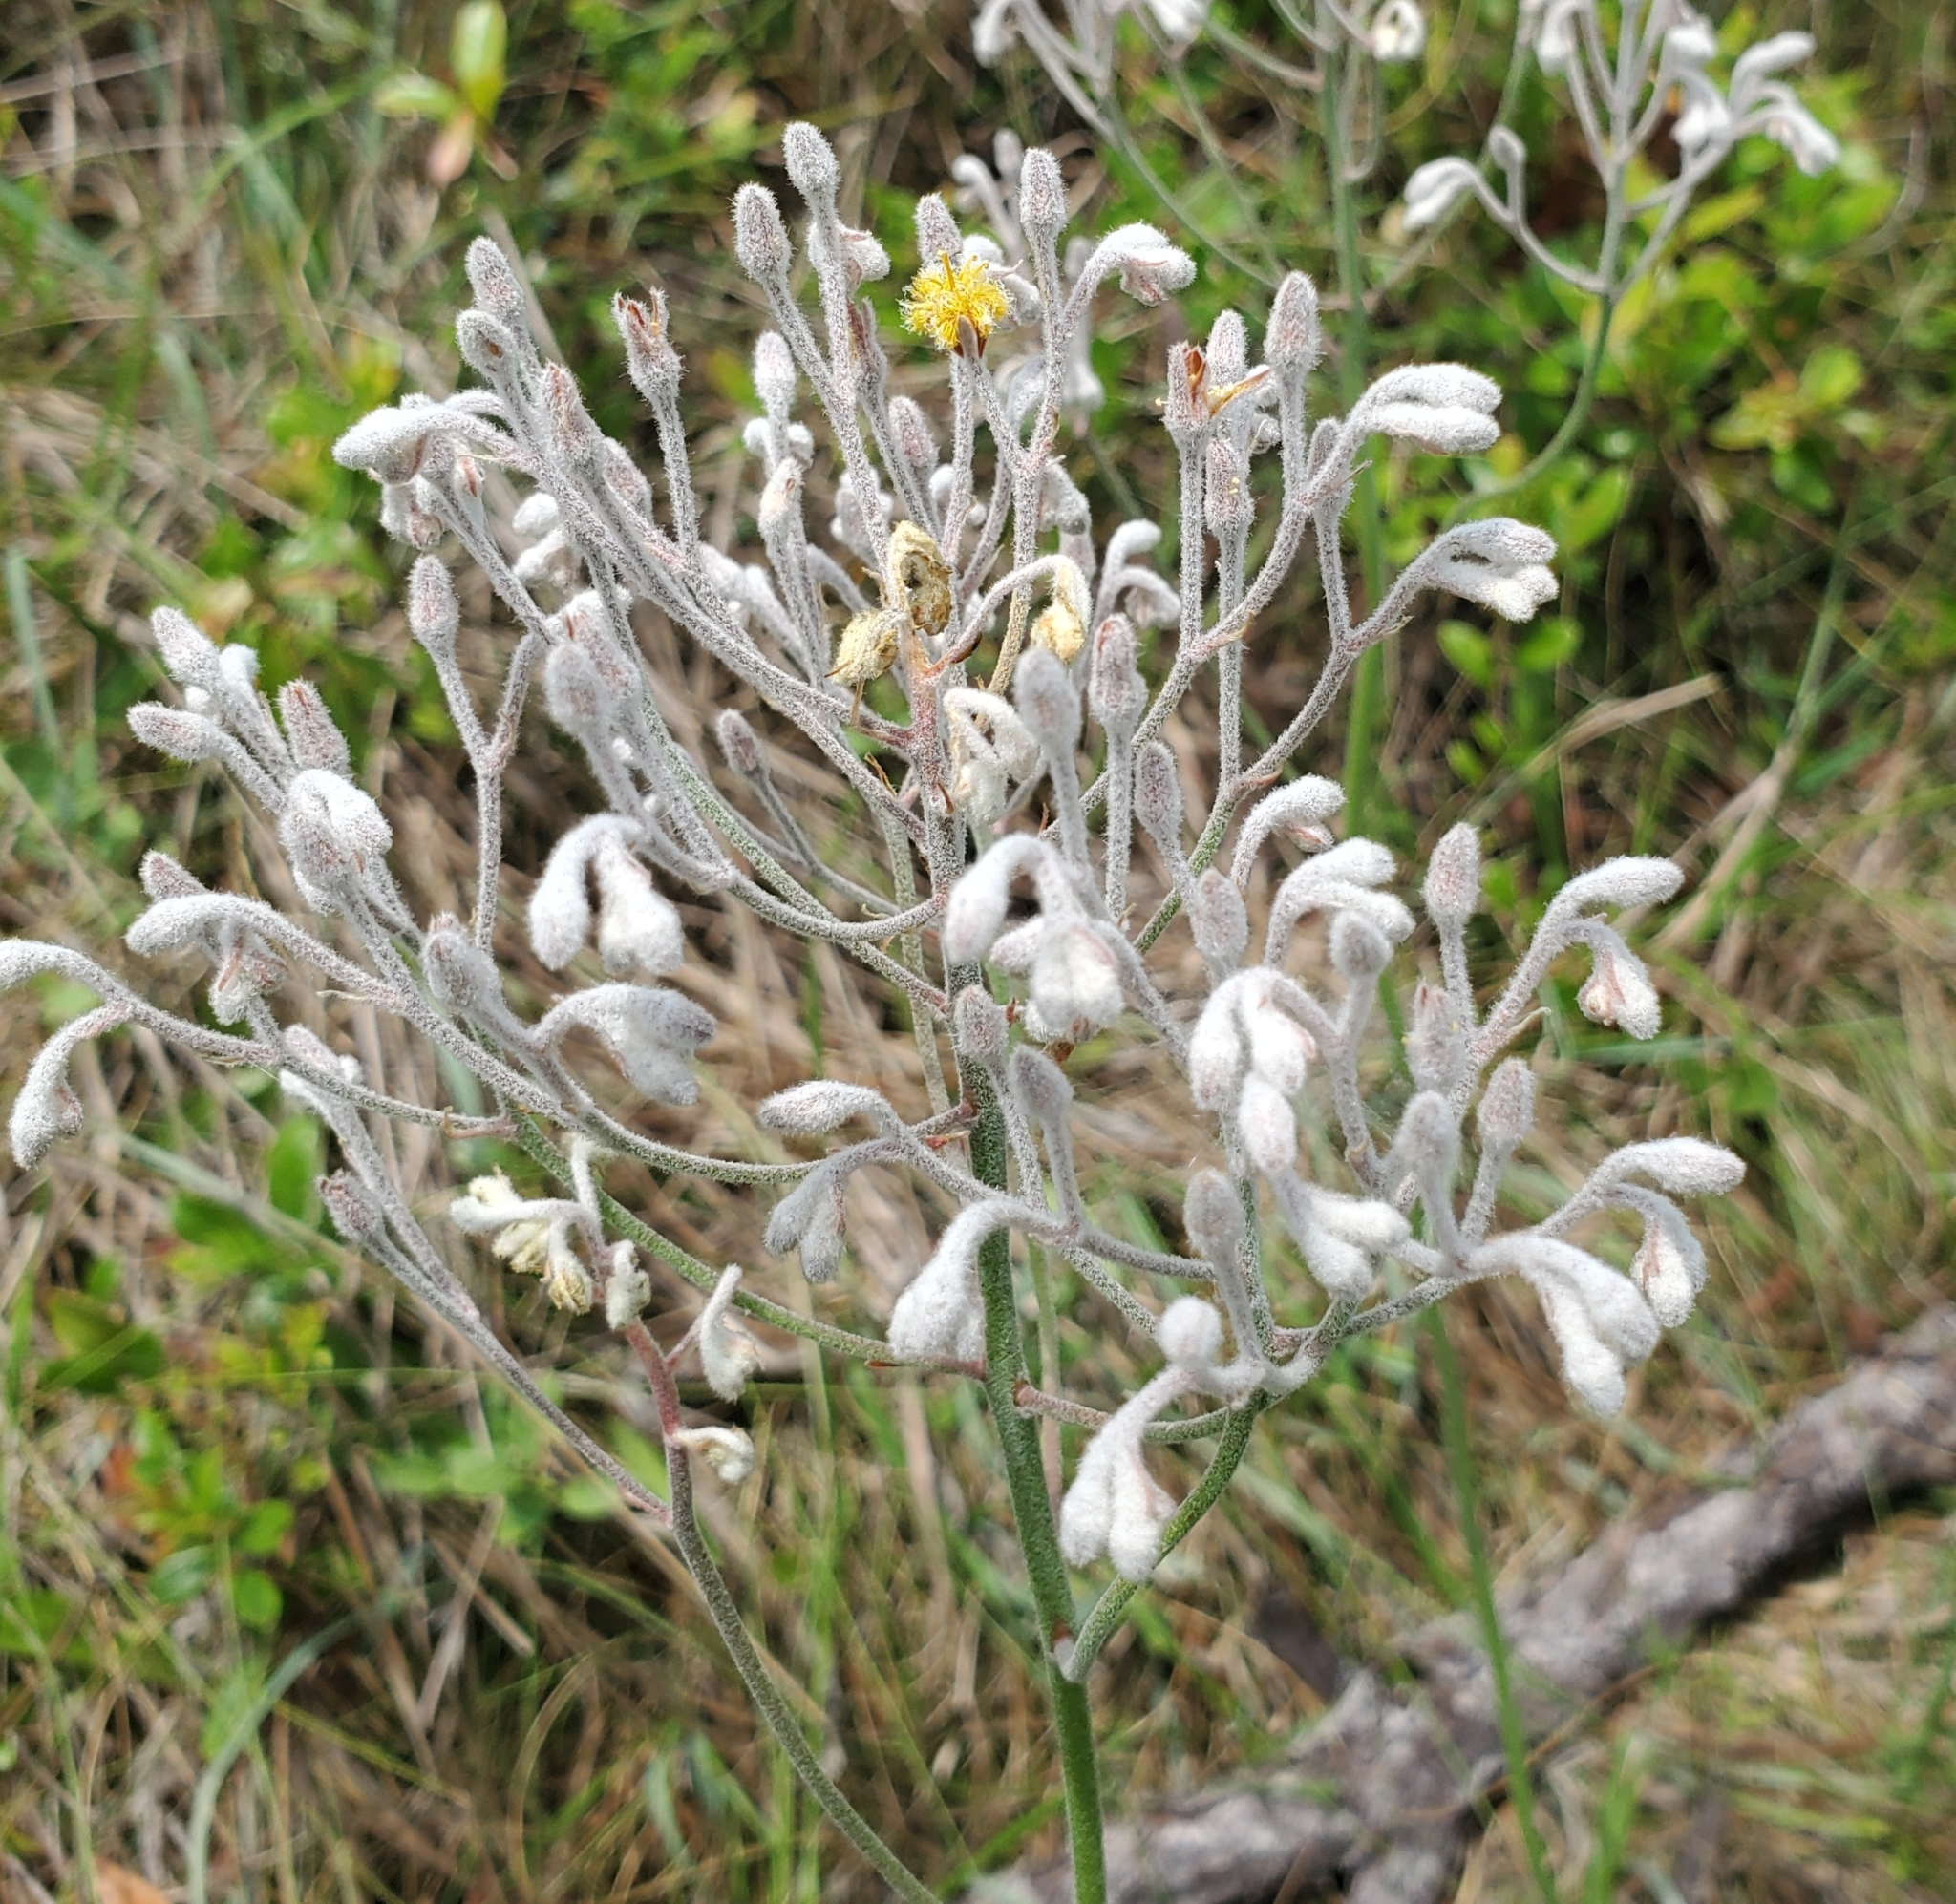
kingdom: Plantae
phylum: Tracheophyta
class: Liliopsida
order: Dioscoreales
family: Nartheciaceae
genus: Lophiola
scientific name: Lophiola aurea
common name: Golden-crest
